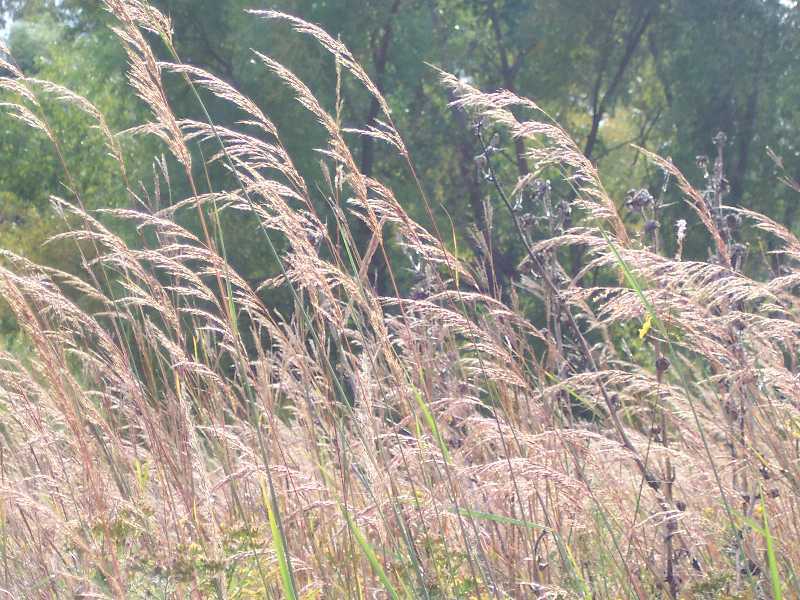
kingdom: Plantae
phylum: Tracheophyta
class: Liliopsida
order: Poales
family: Poaceae
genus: Bromus
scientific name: Bromus inermis
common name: Smooth brome
